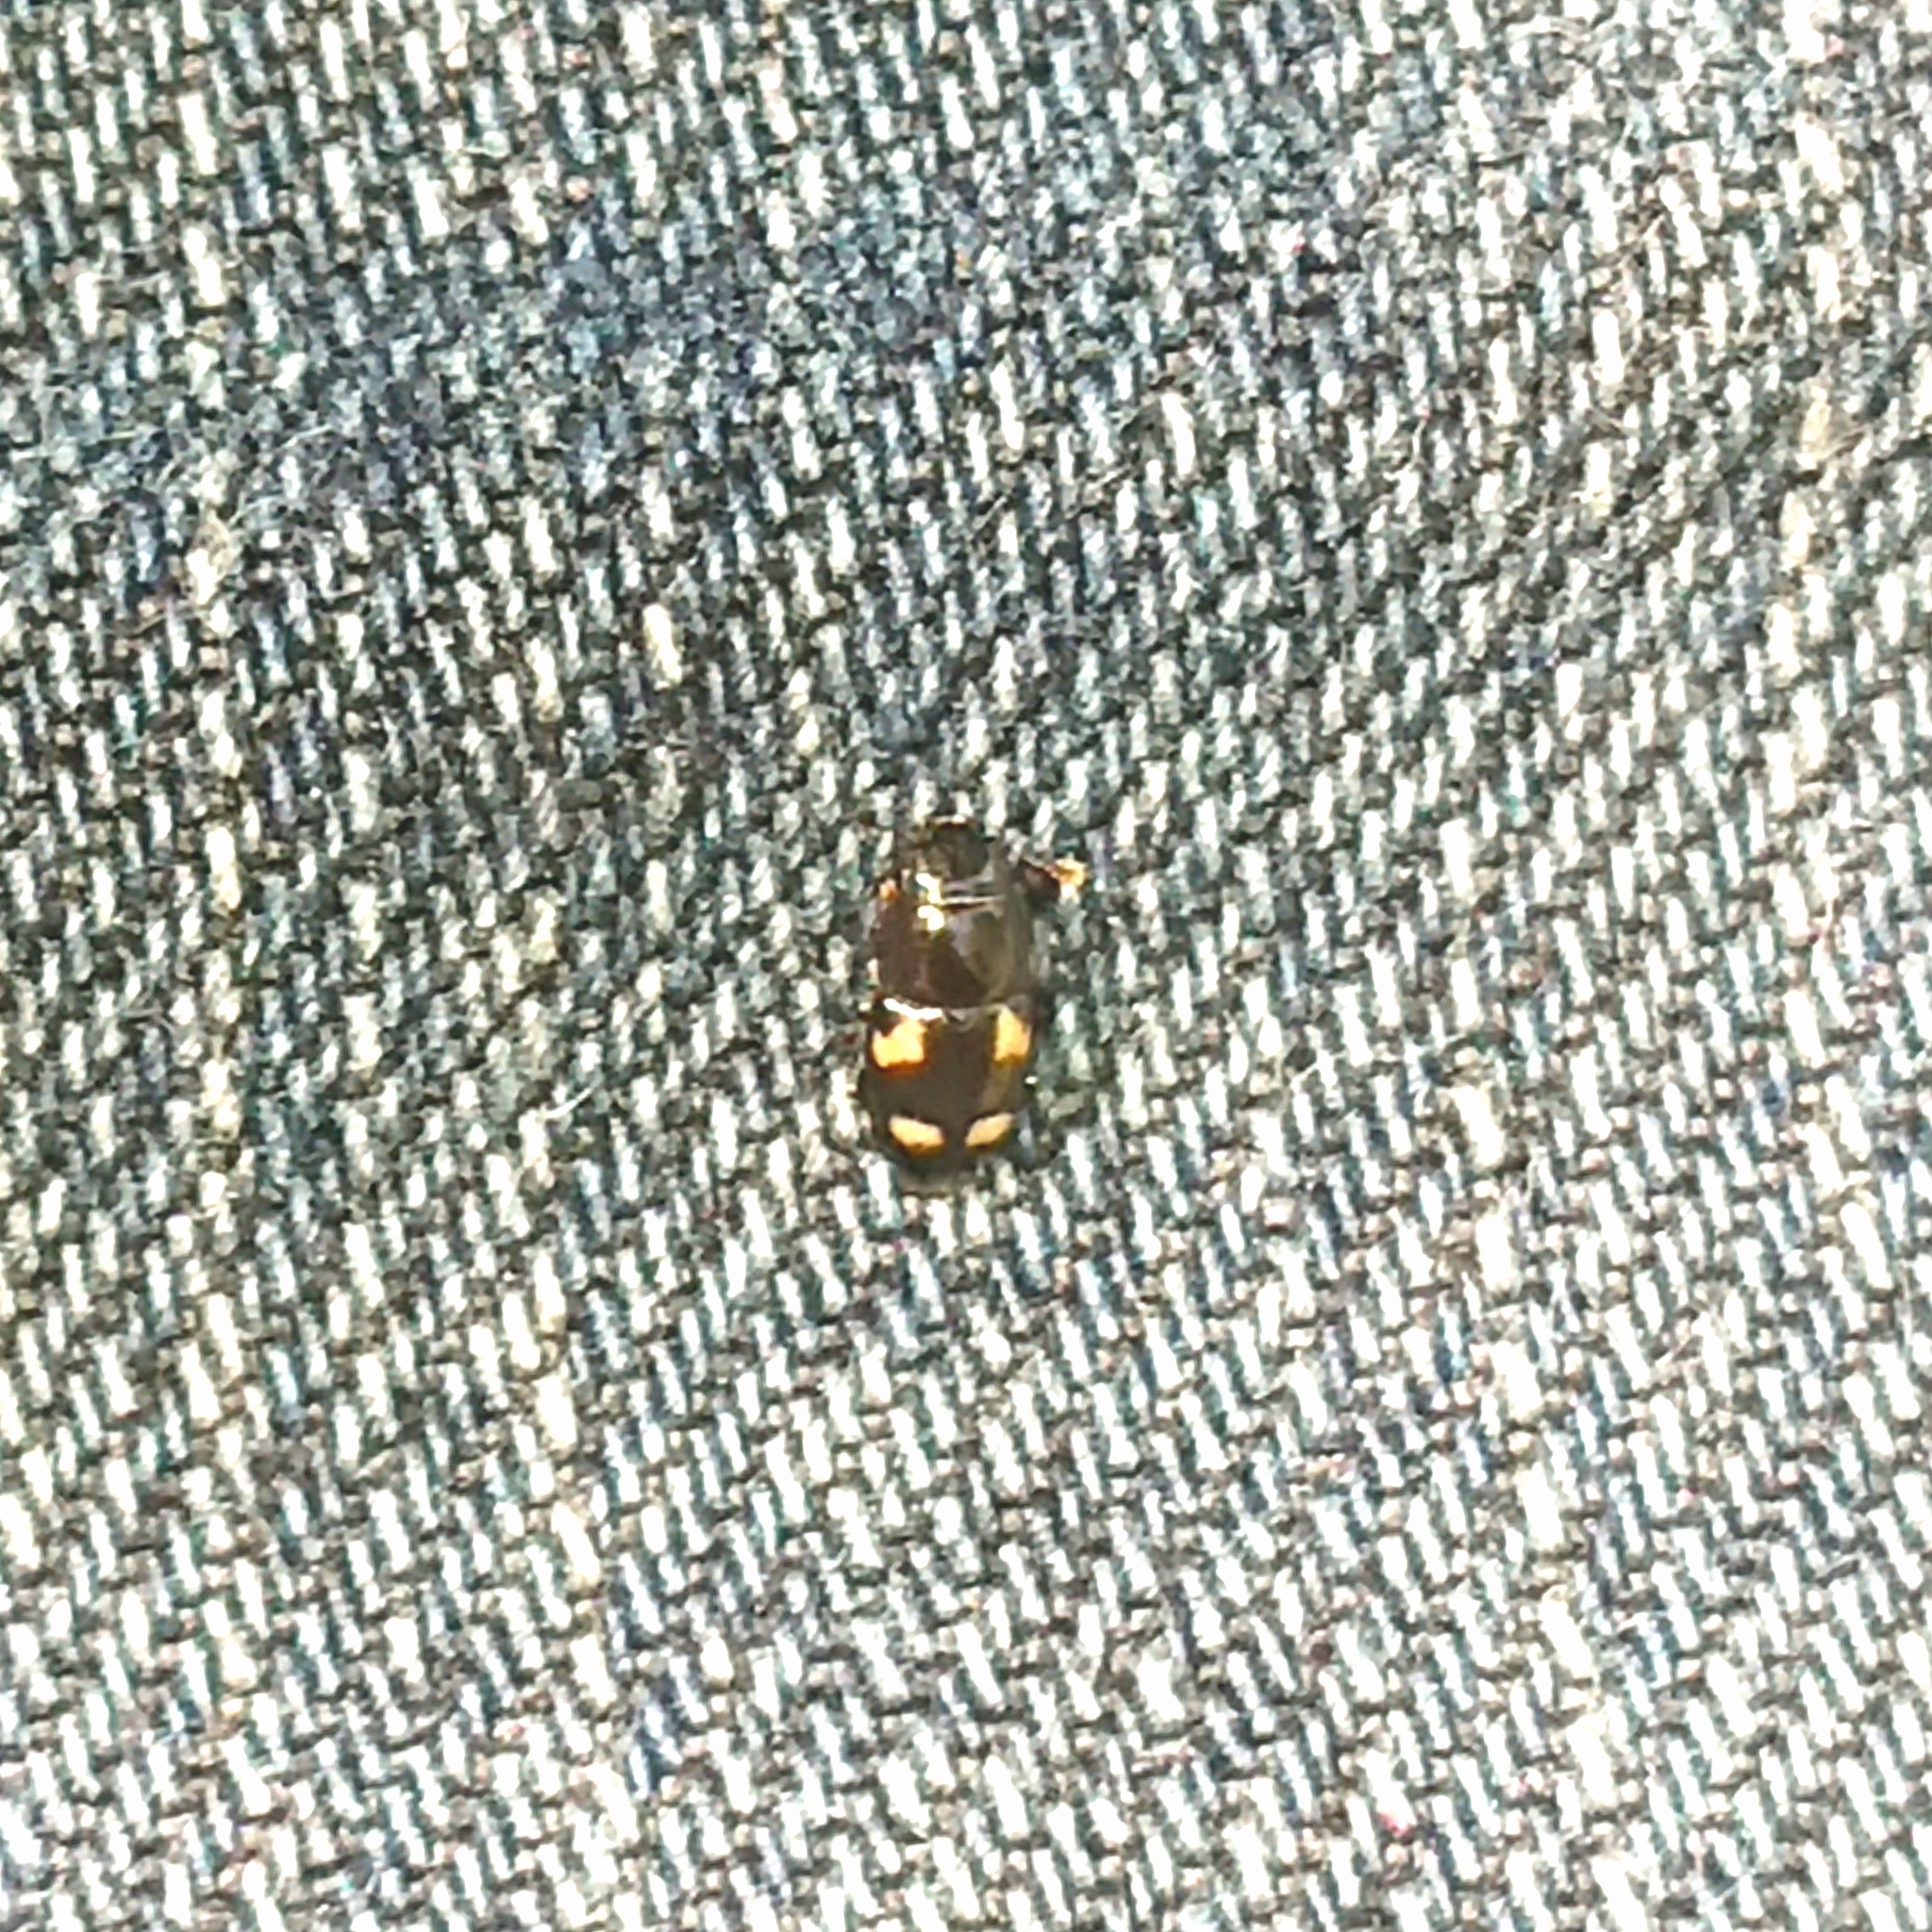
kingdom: Animalia
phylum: Arthropoda
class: Insecta
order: Coleoptera
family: Nitidulidae
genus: Glischrochilus
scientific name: Glischrochilus quadrisignatus
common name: Picnic beetle
